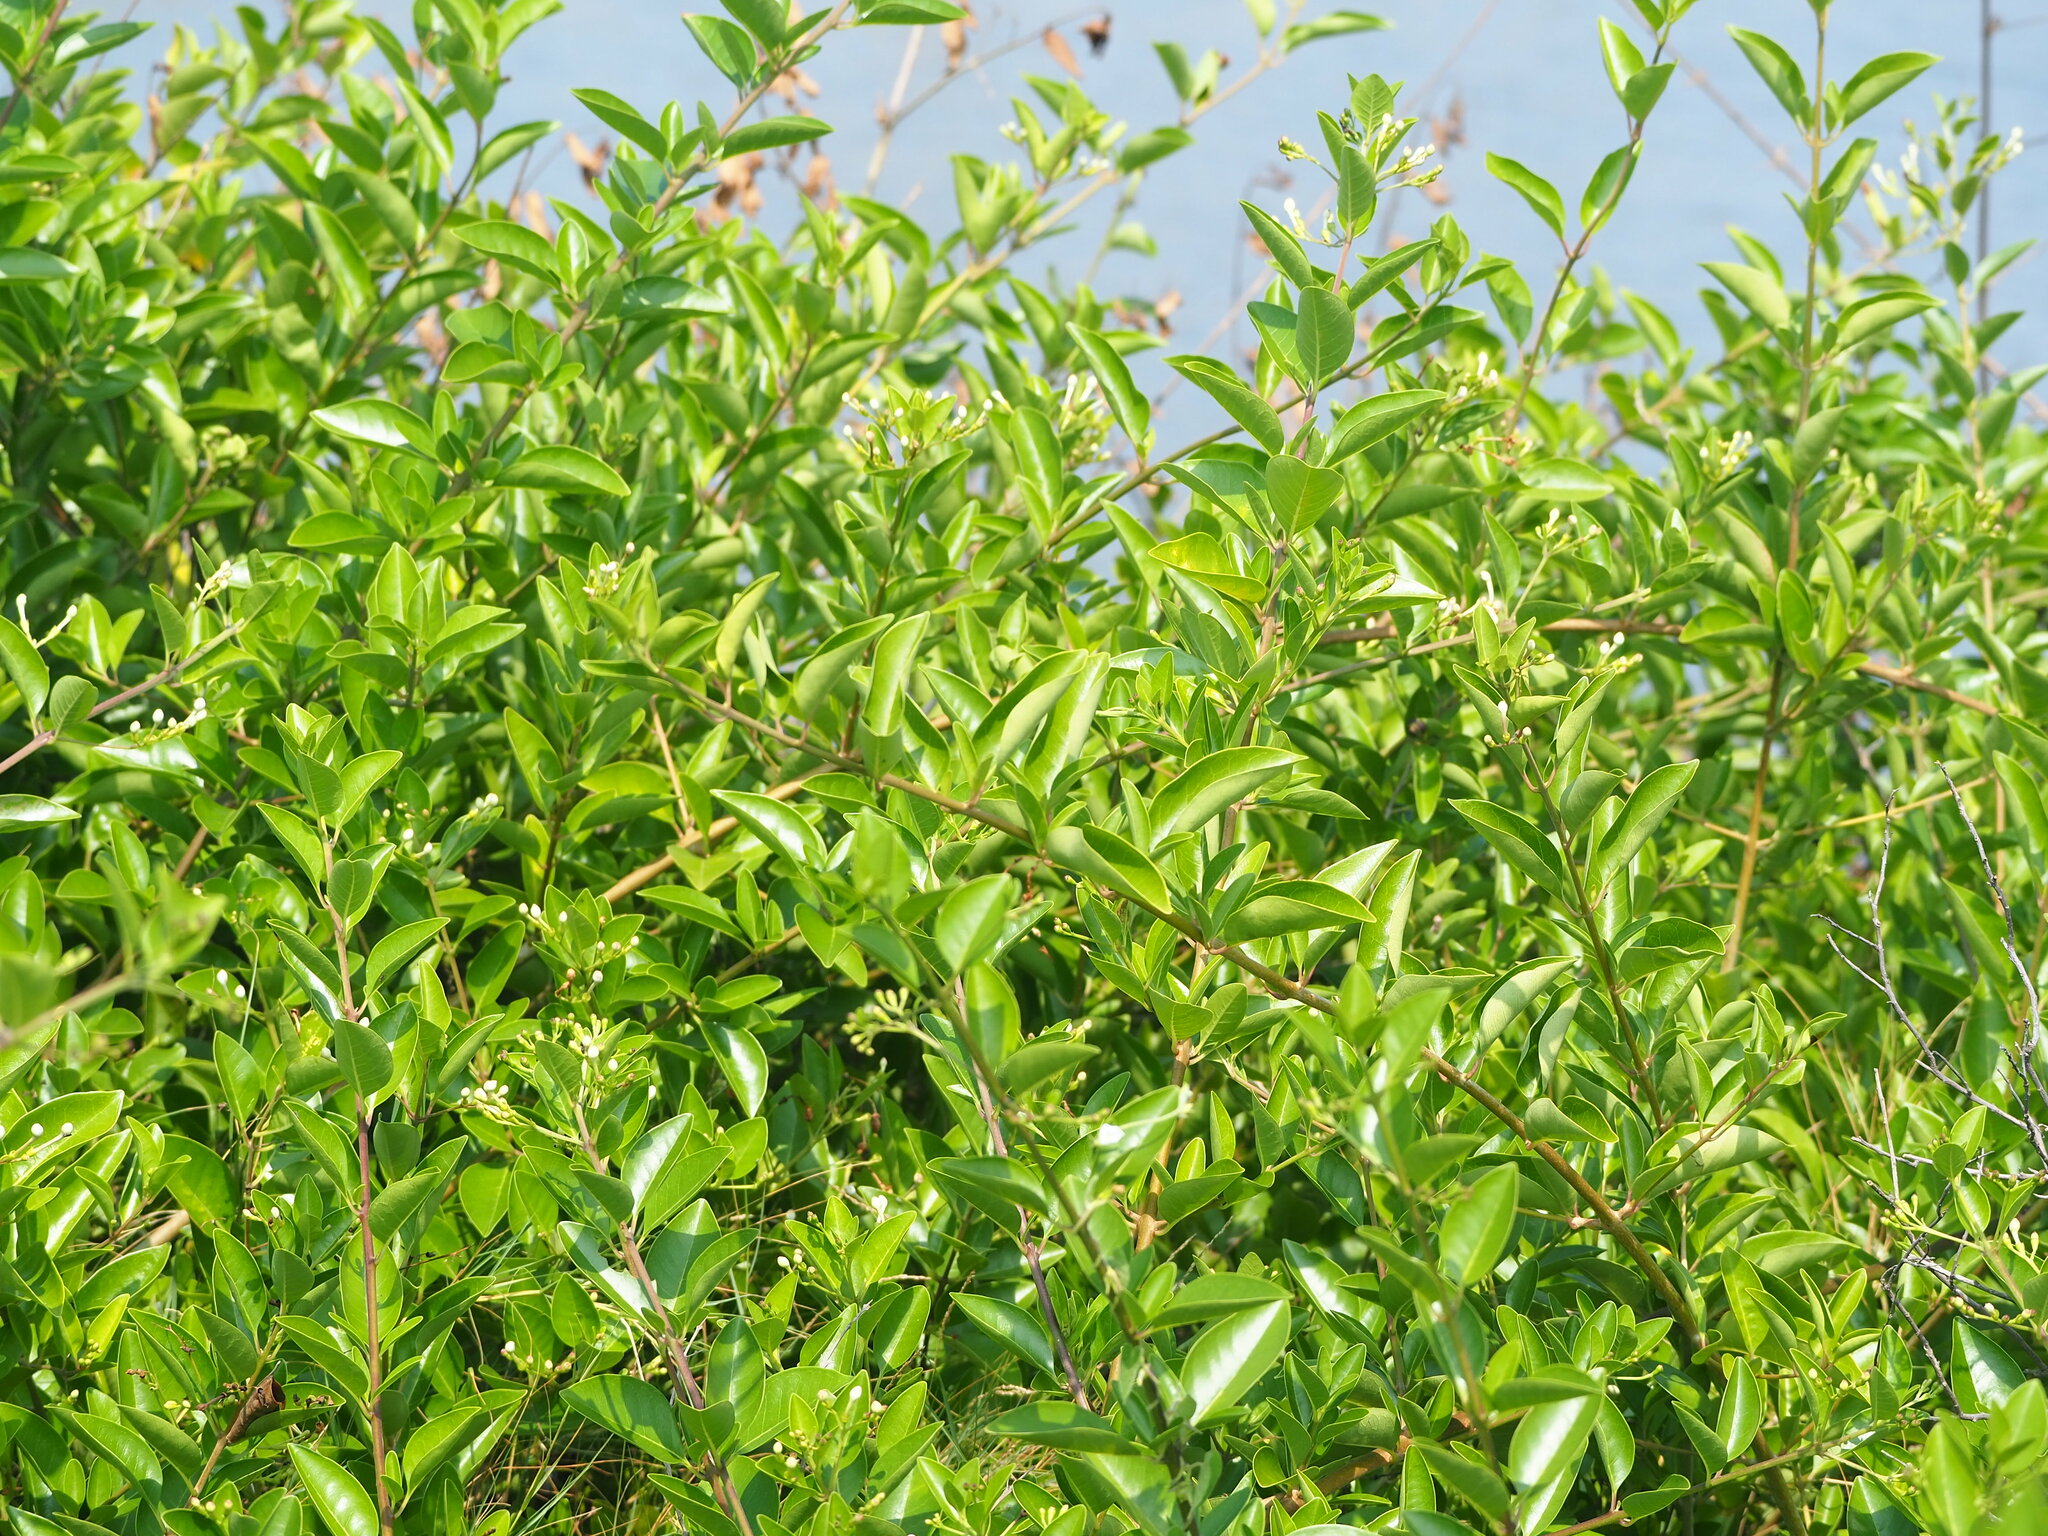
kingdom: Plantae
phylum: Tracheophyta
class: Magnoliopsida
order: Lamiales
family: Lamiaceae
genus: Volkameria
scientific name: Volkameria inermis
